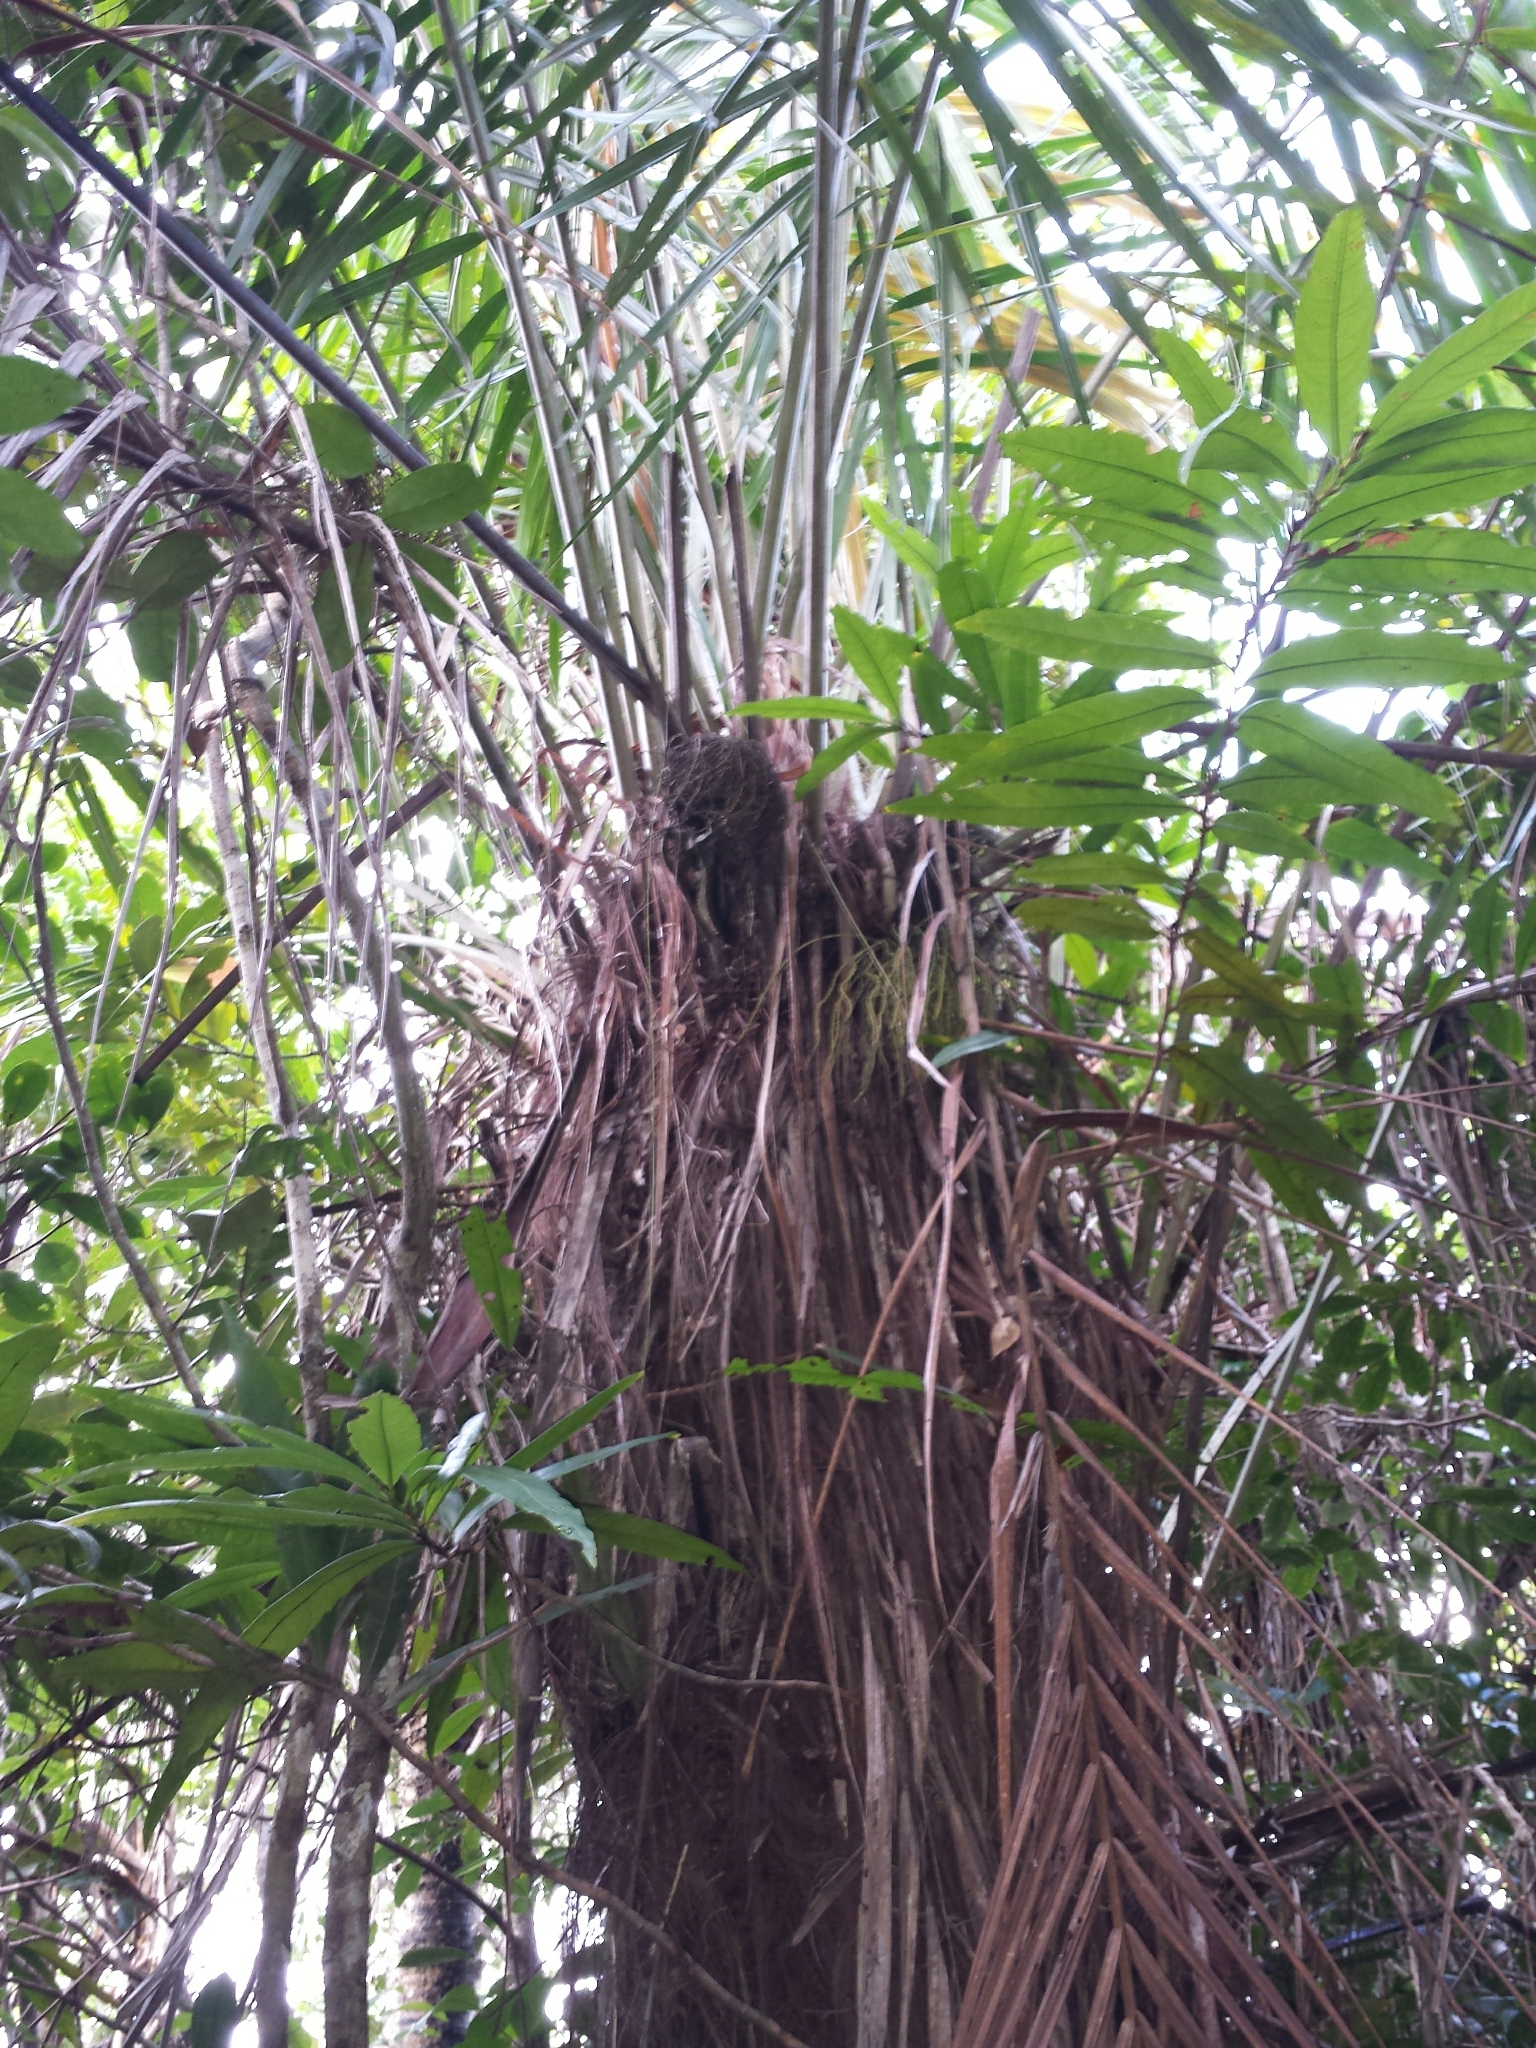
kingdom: Plantae
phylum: Tracheophyta
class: Liliopsida
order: Arecales
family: Arecaceae
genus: Dypsis
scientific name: Dypsis fibrosa
